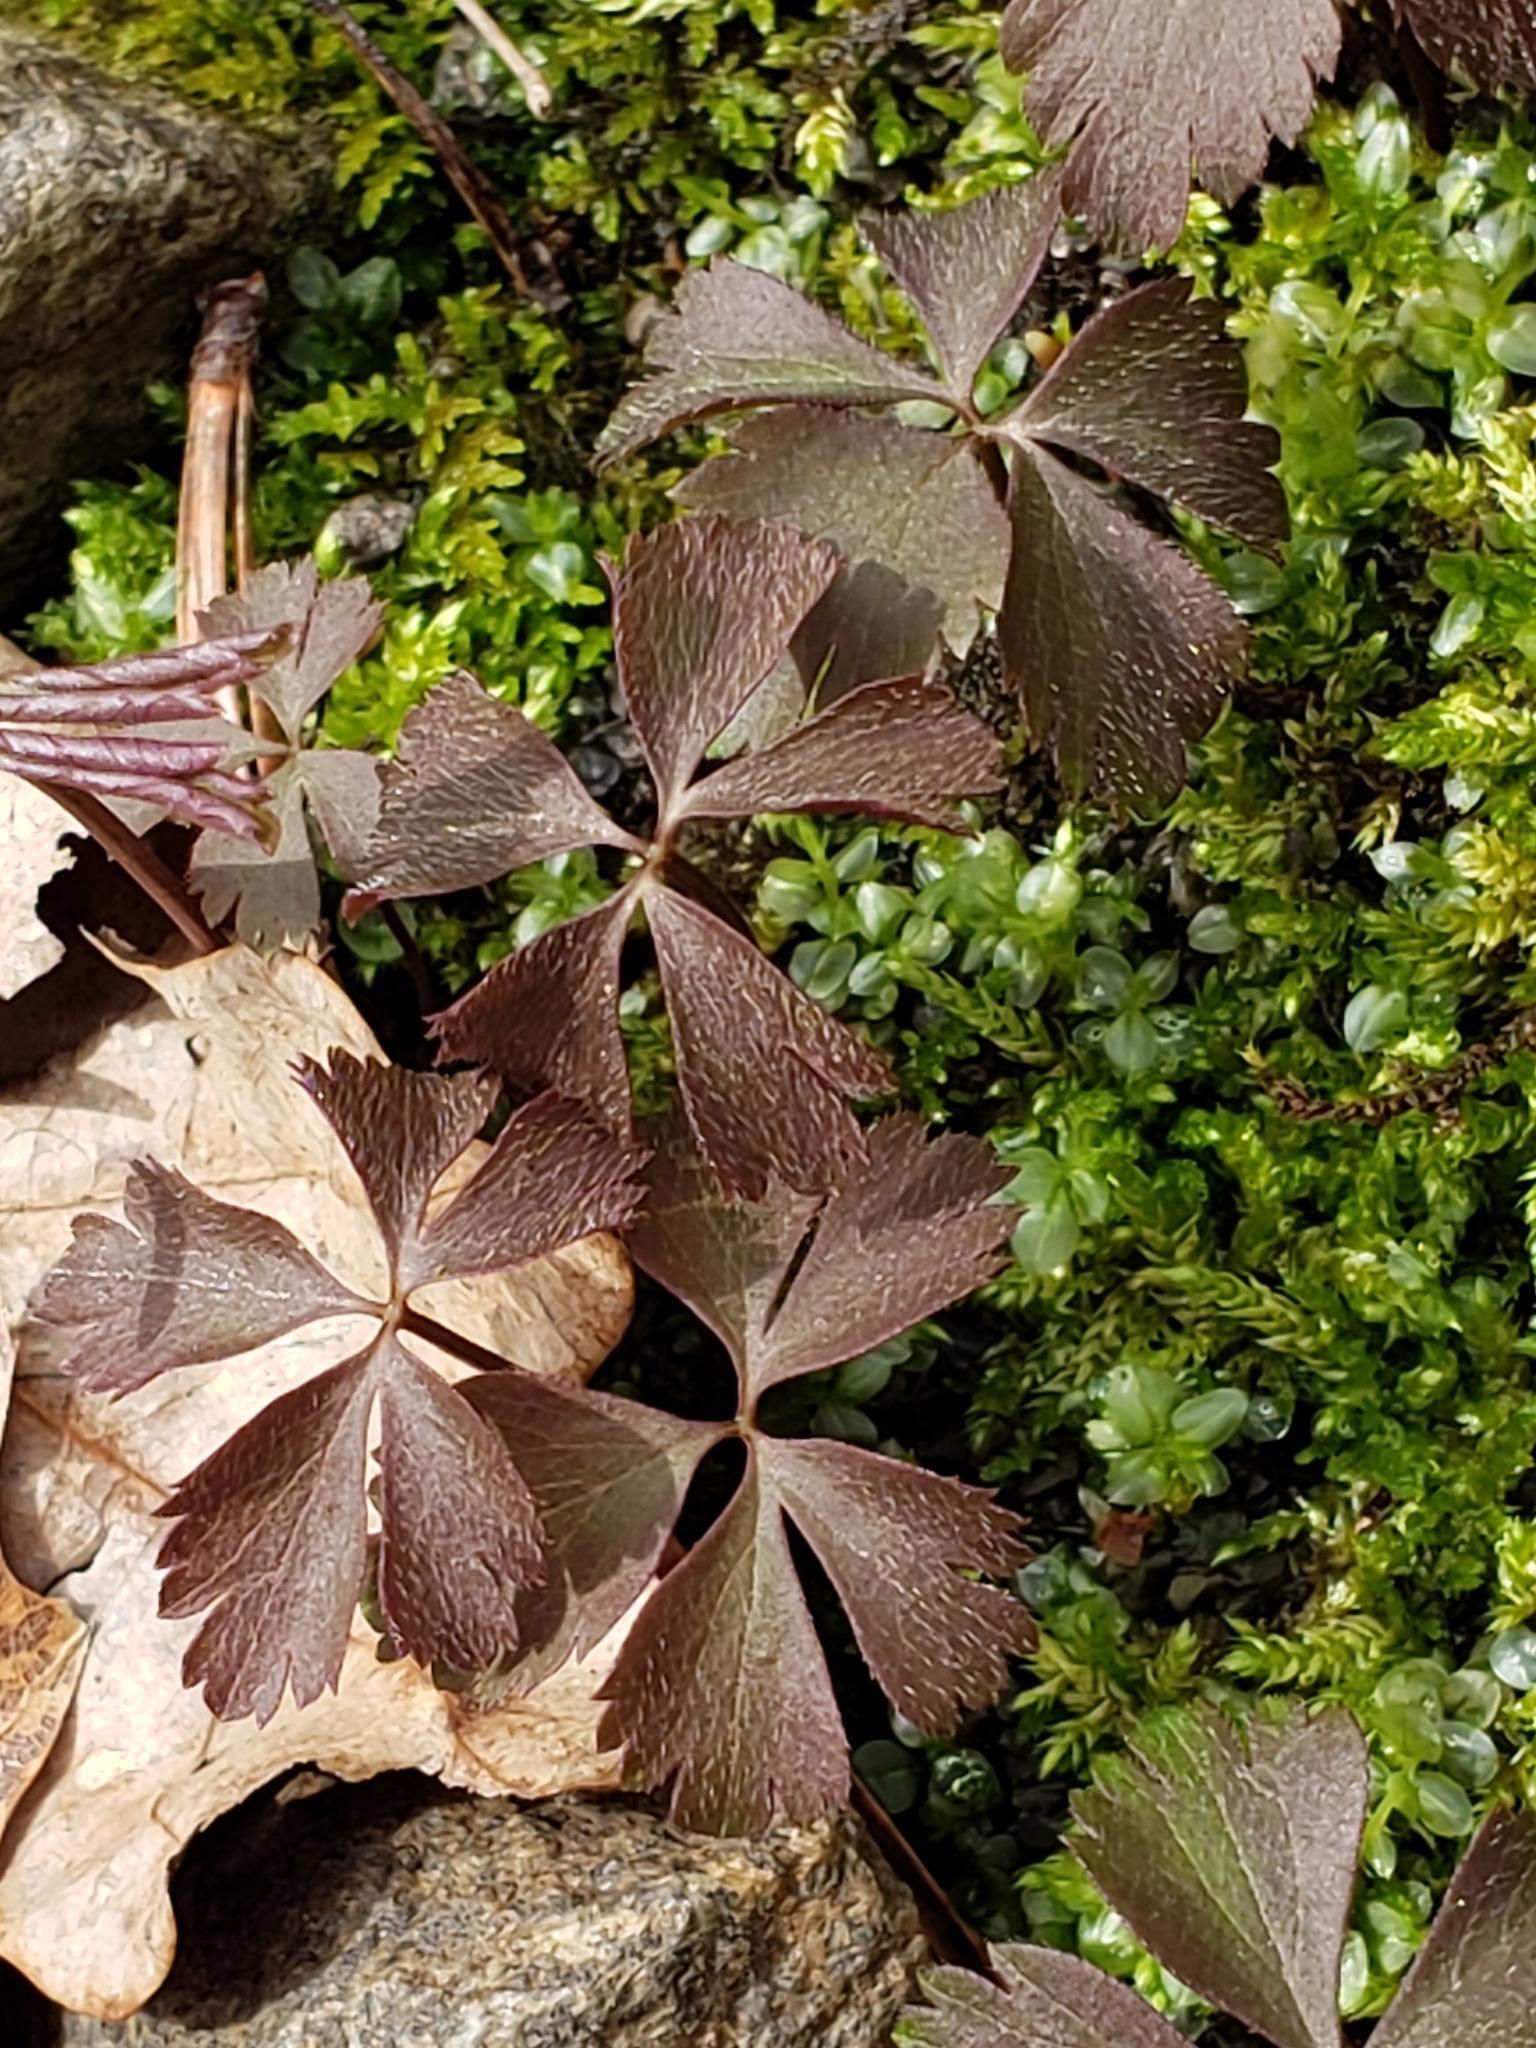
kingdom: Plantae
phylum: Tracheophyta
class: Magnoliopsida
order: Ranunculales
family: Ranunculaceae
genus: Anemone
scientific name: Anemone quinquefolia
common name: Wood anemone
